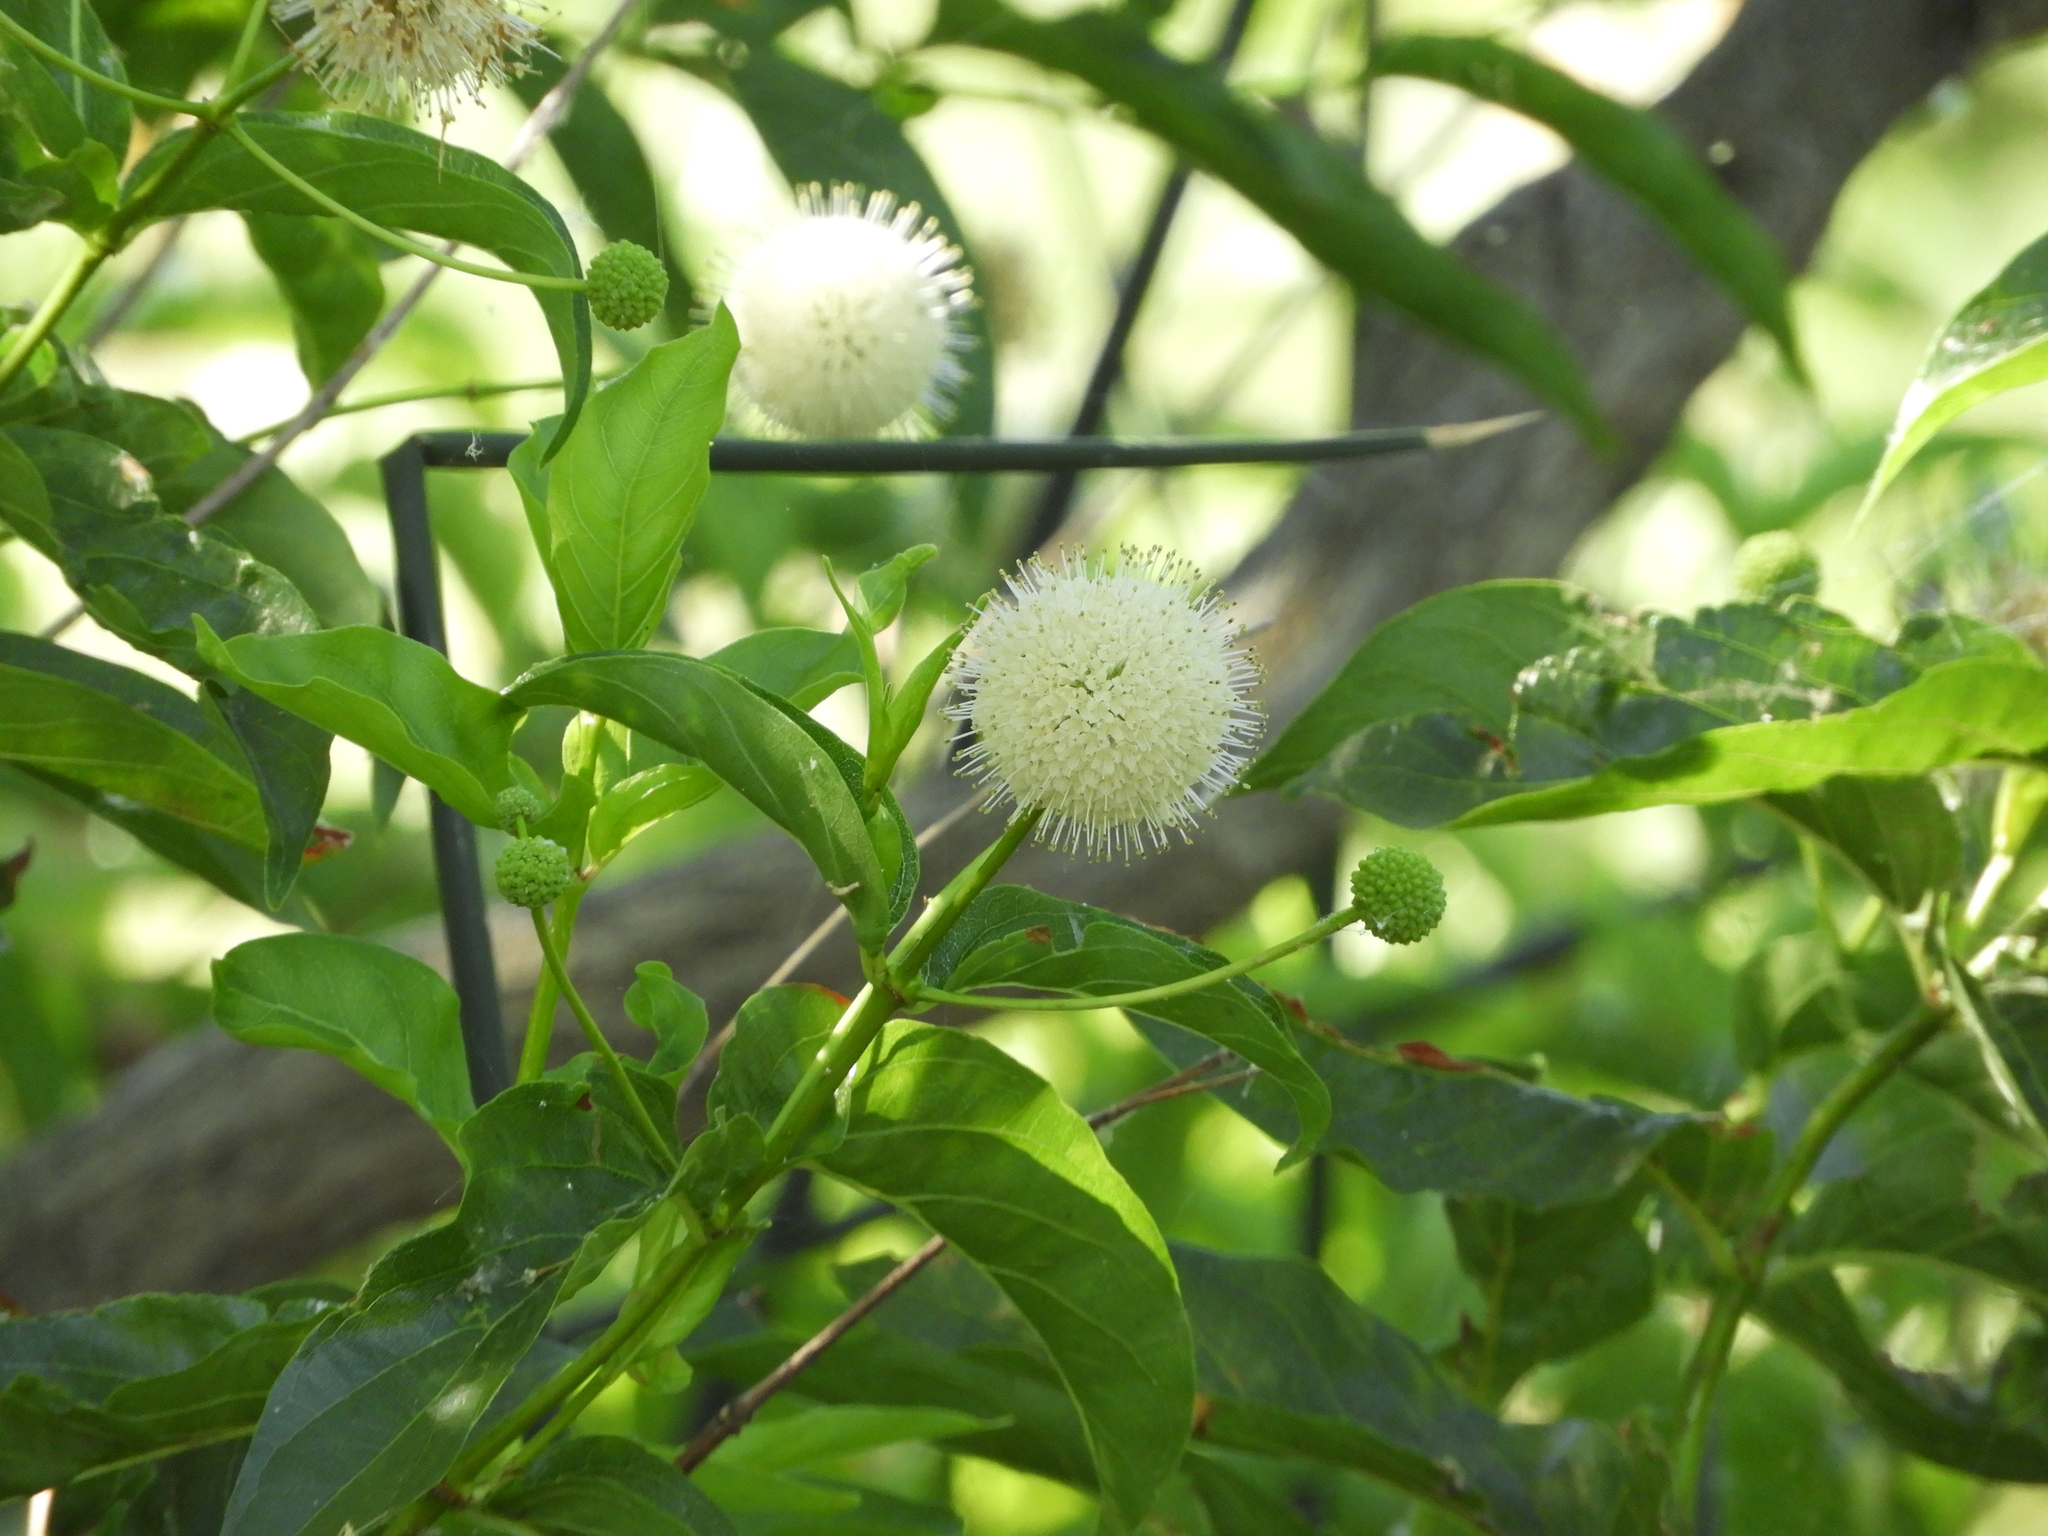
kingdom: Plantae
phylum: Tracheophyta
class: Magnoliopsida
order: Gentianales
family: Rubiaceae
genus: Cephalanthus
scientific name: Cephalanthus occidentalis
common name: Button-willow
